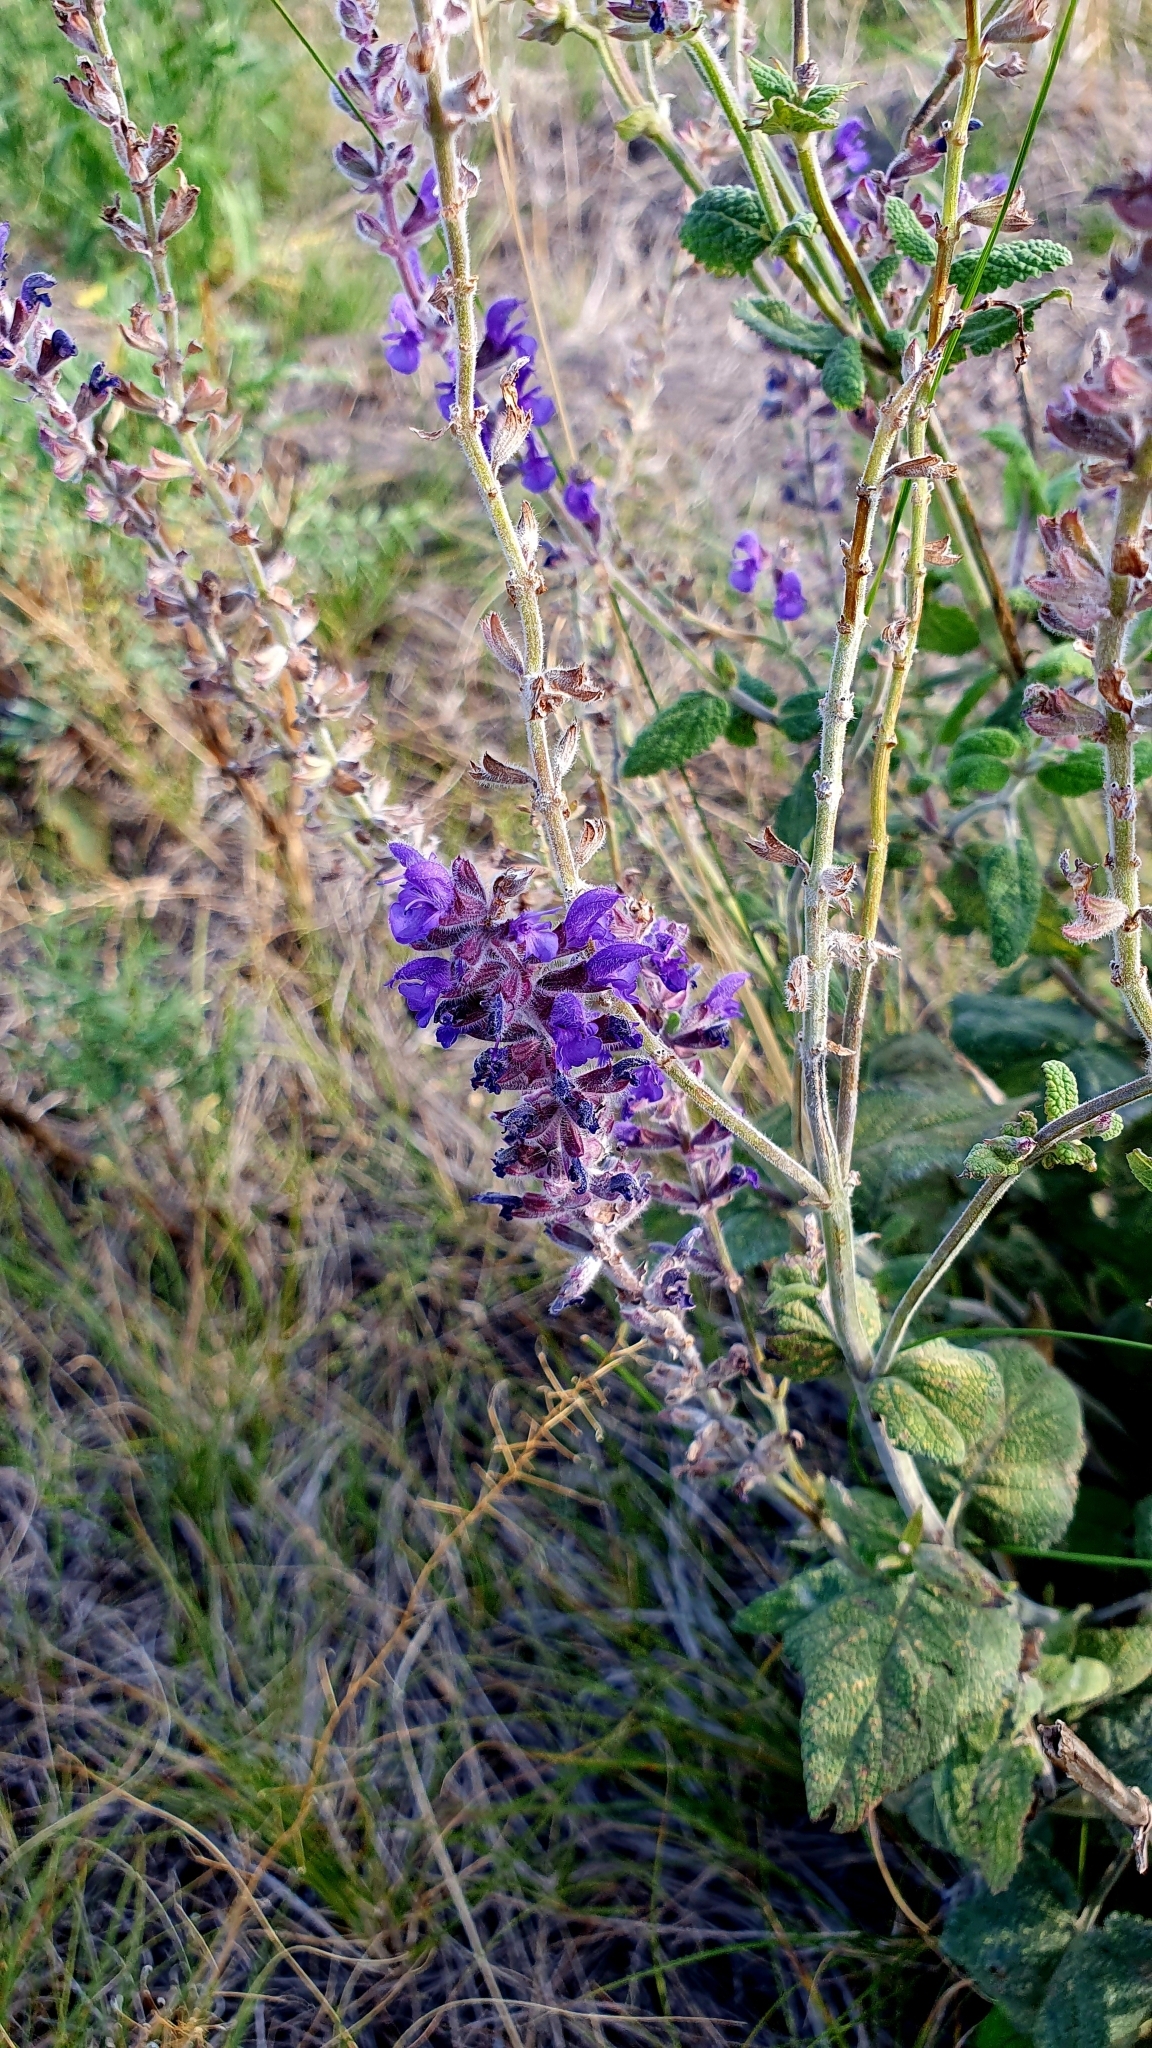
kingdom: Plantae
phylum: Tracheophyta
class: Magnoliopsida
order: Lamiales
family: Lamiaceae
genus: Salvia
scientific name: Salvia dumetorum
